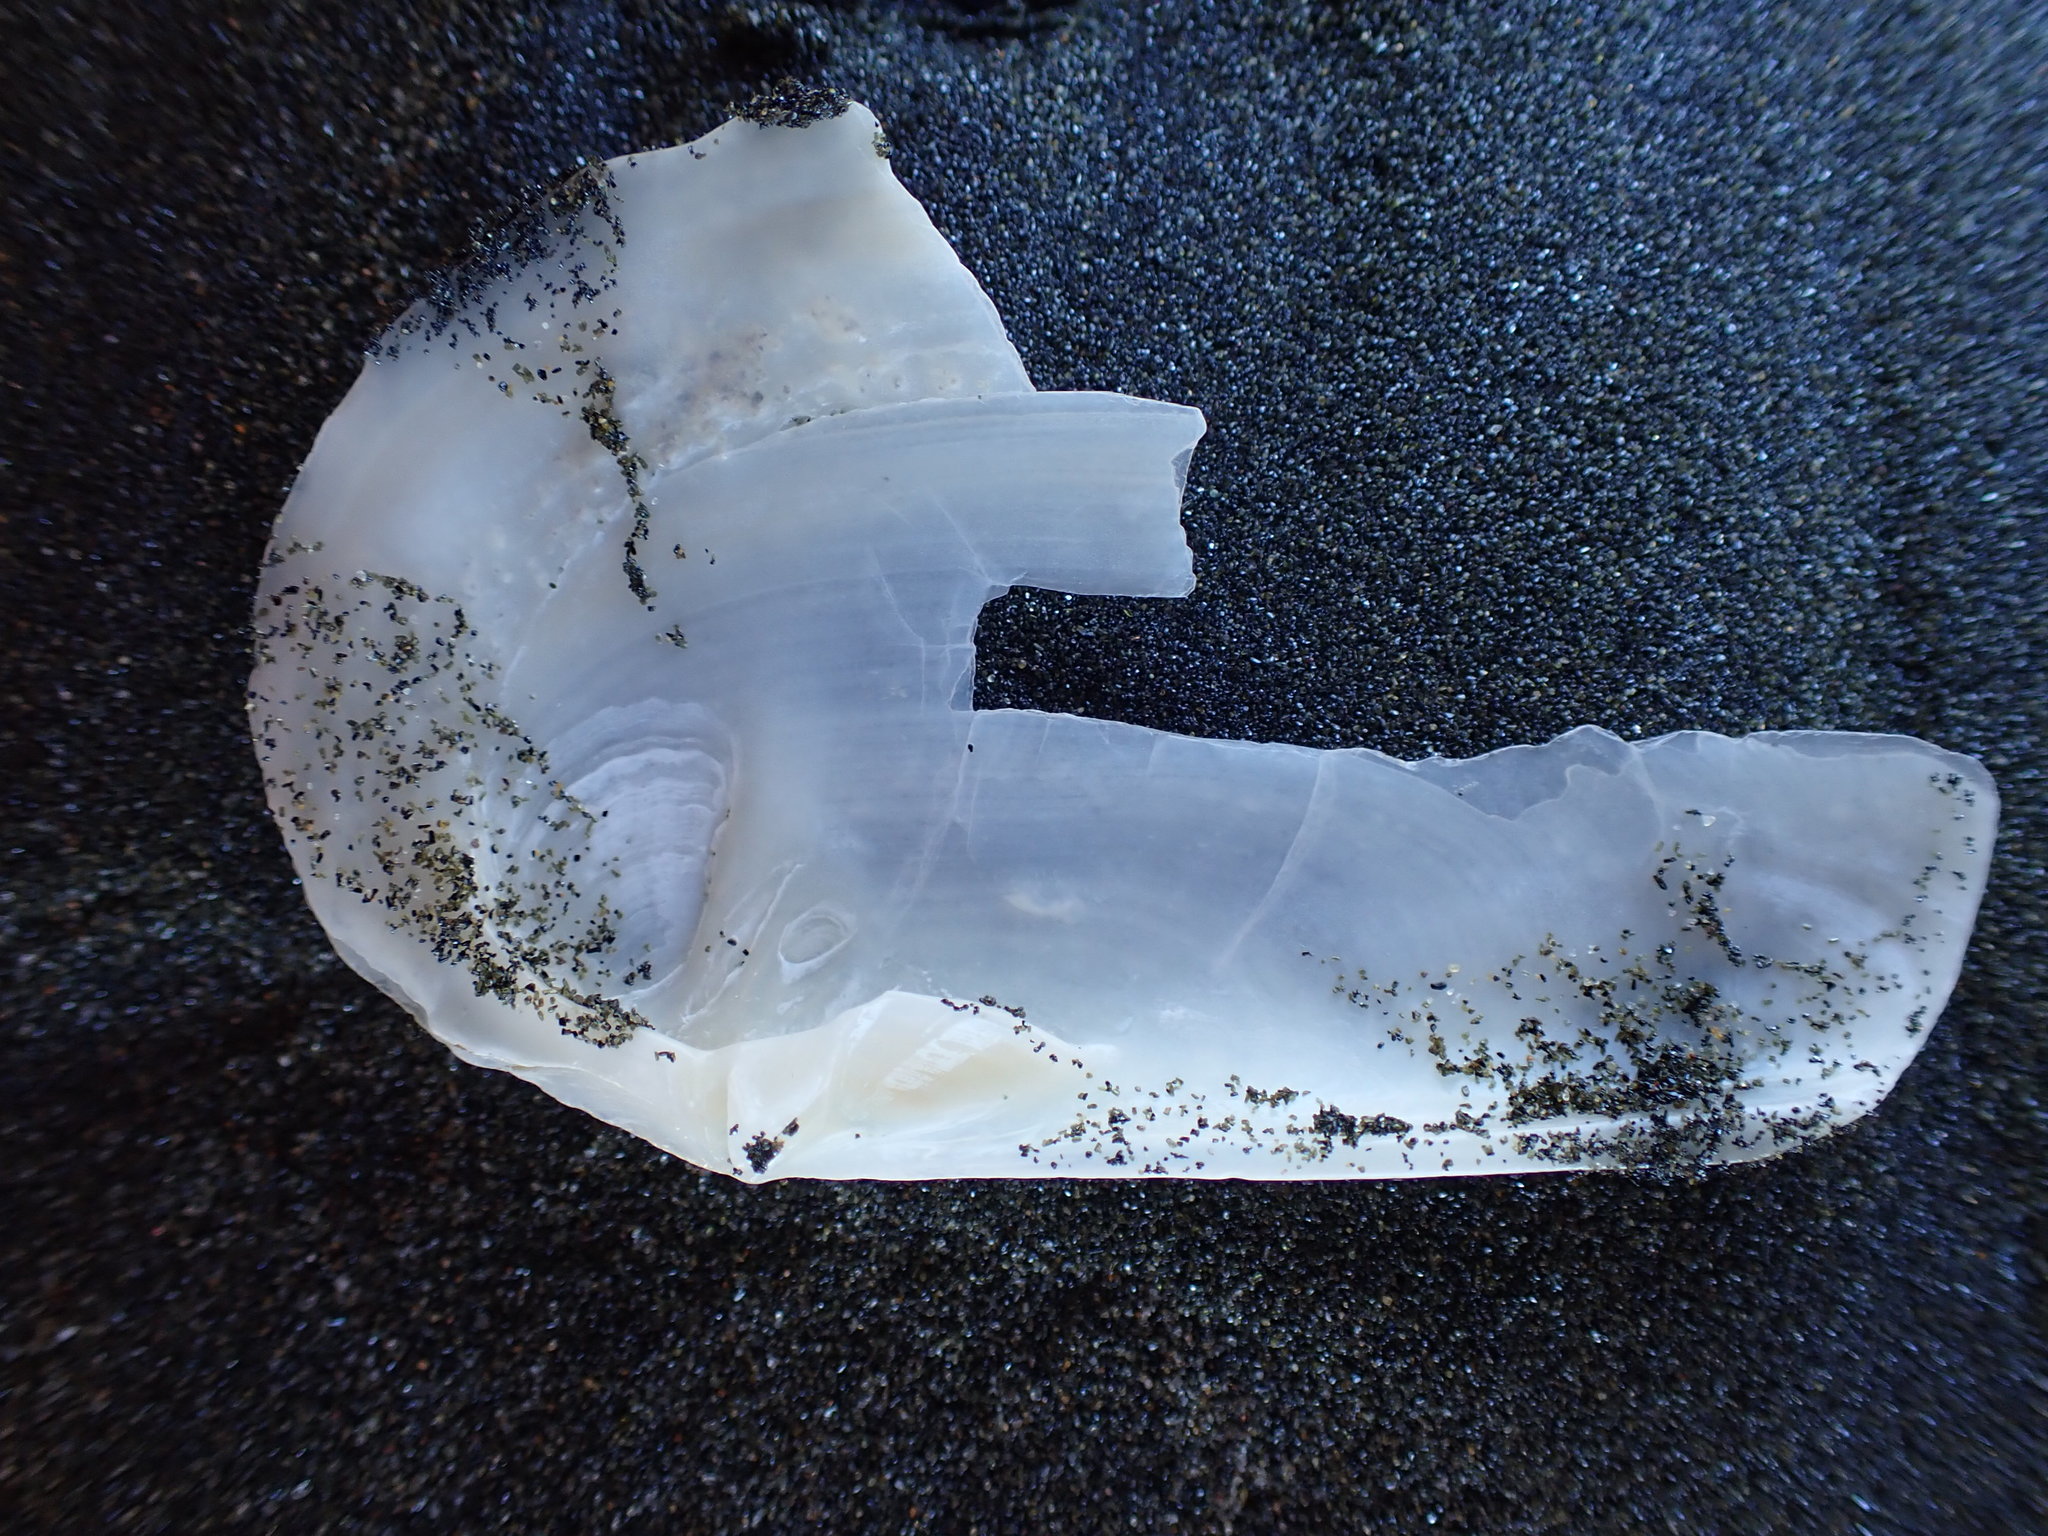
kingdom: Animalia
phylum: Mollusca
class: Bivalvia
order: Venerida
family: Mactridae
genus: Zenatia
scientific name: Zenatia acinaces
